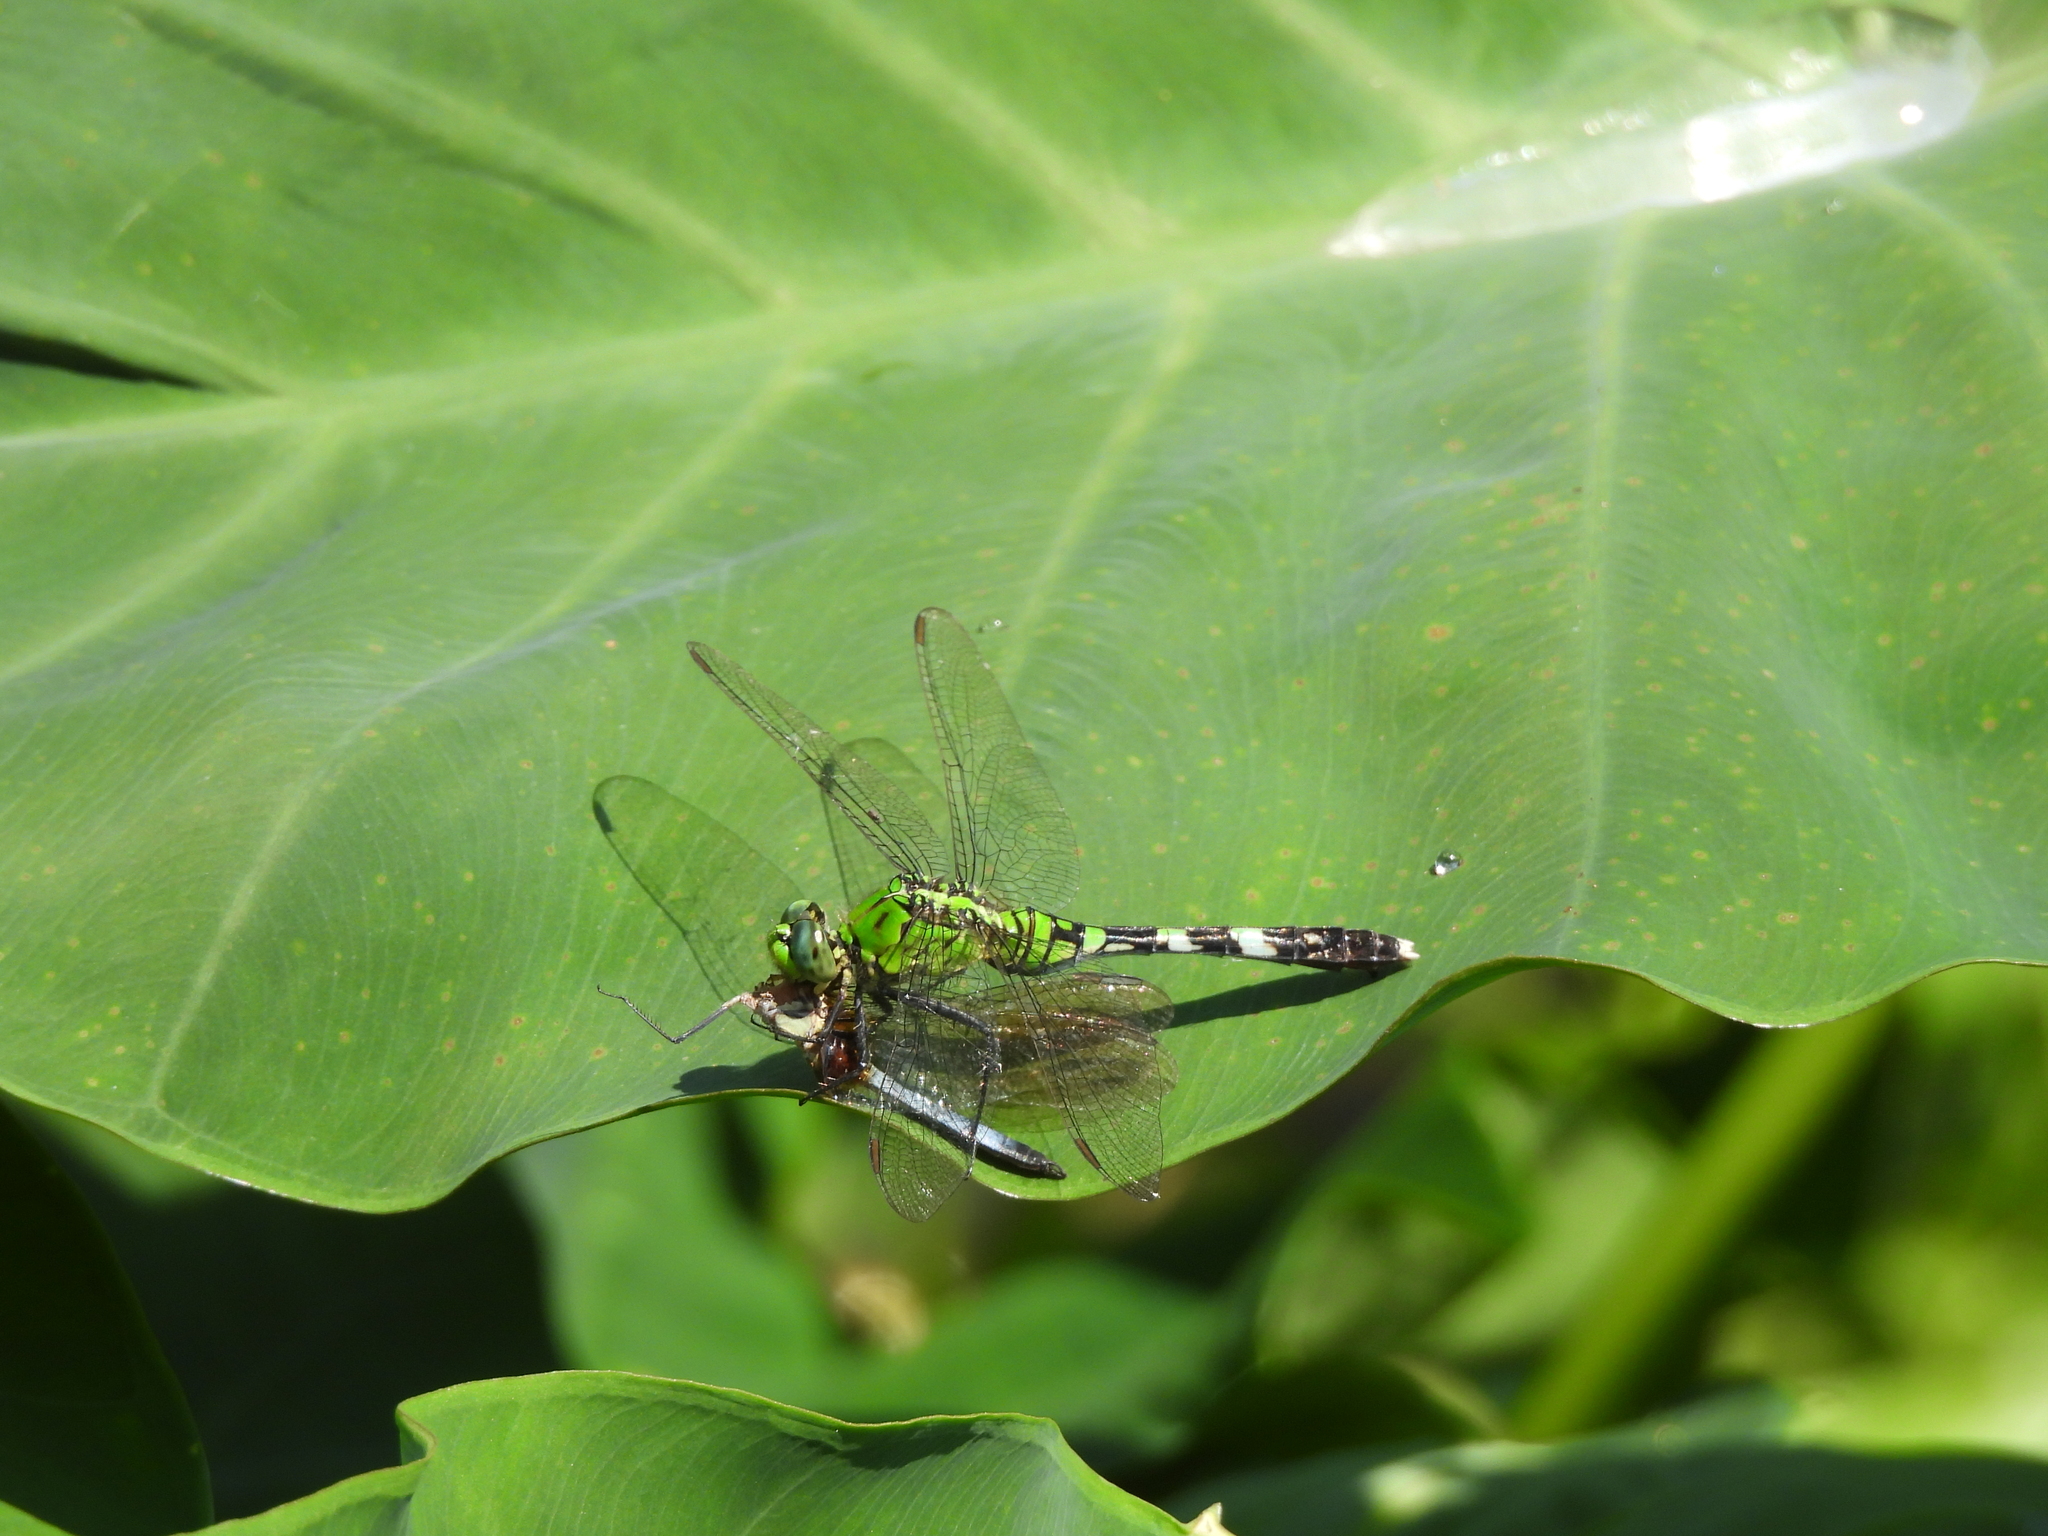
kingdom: Animalia
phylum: Arthropoda
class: Insecta
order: Odonata
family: Libellulidae
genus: Erythemis
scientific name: Erythemis simplicicollis
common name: Eastern pondhawk
